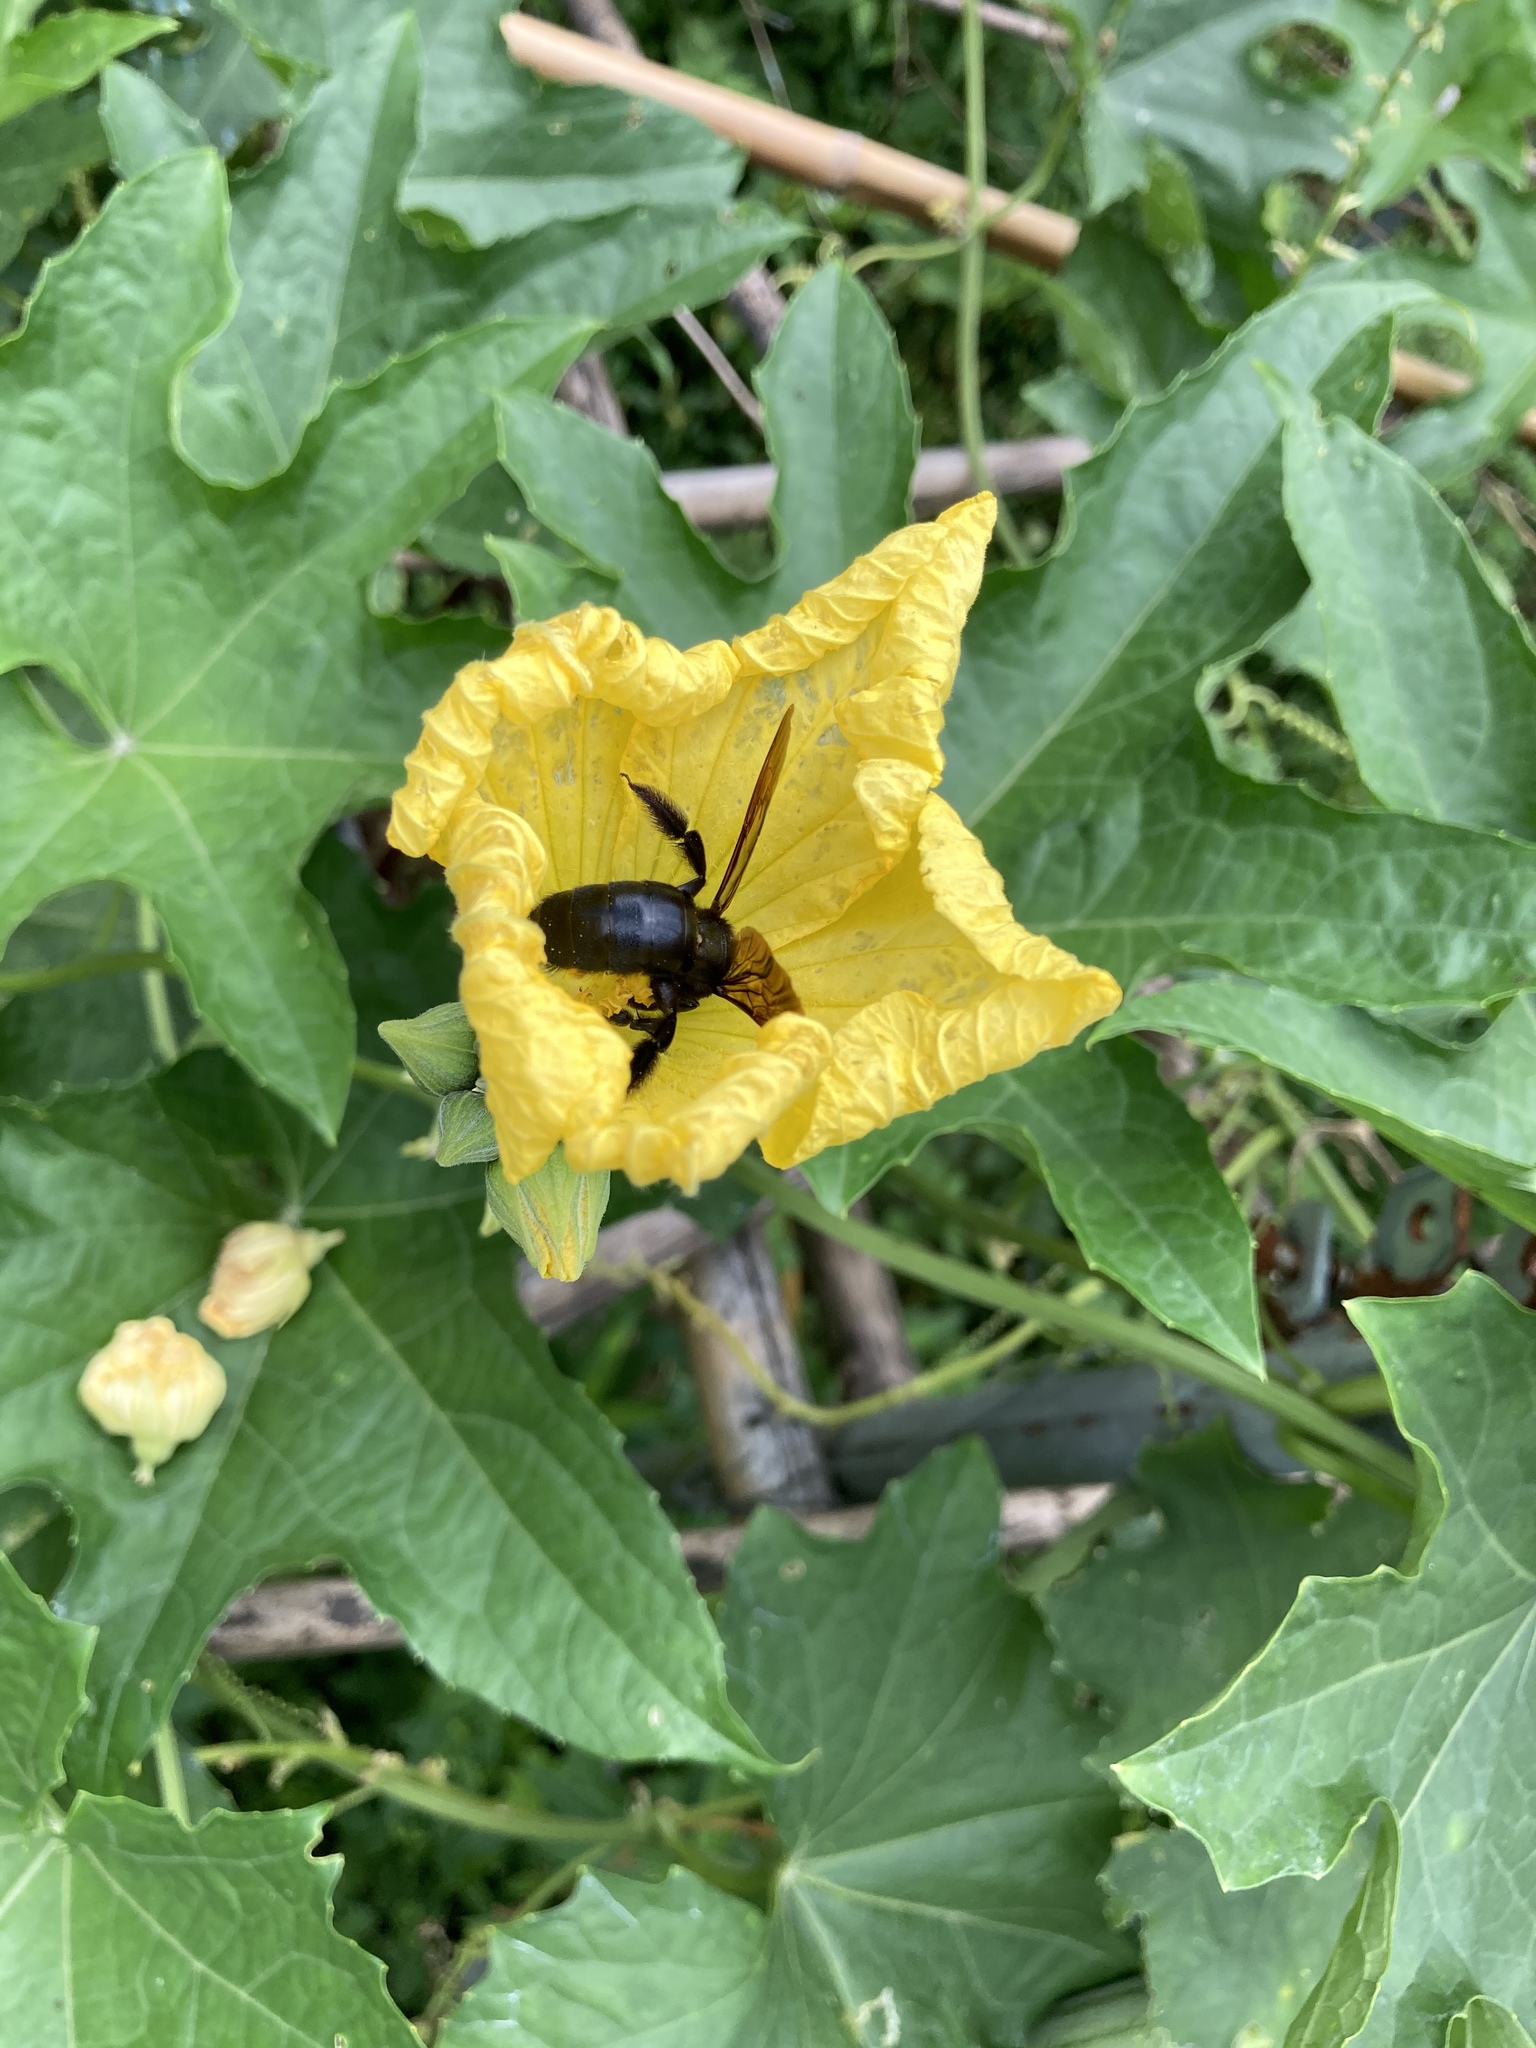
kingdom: Animalia
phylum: Arthropoda
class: Insecta
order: Hymenoptera
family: Apidae
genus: Xylocopa
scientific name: Xylocopa tranquebarorum
